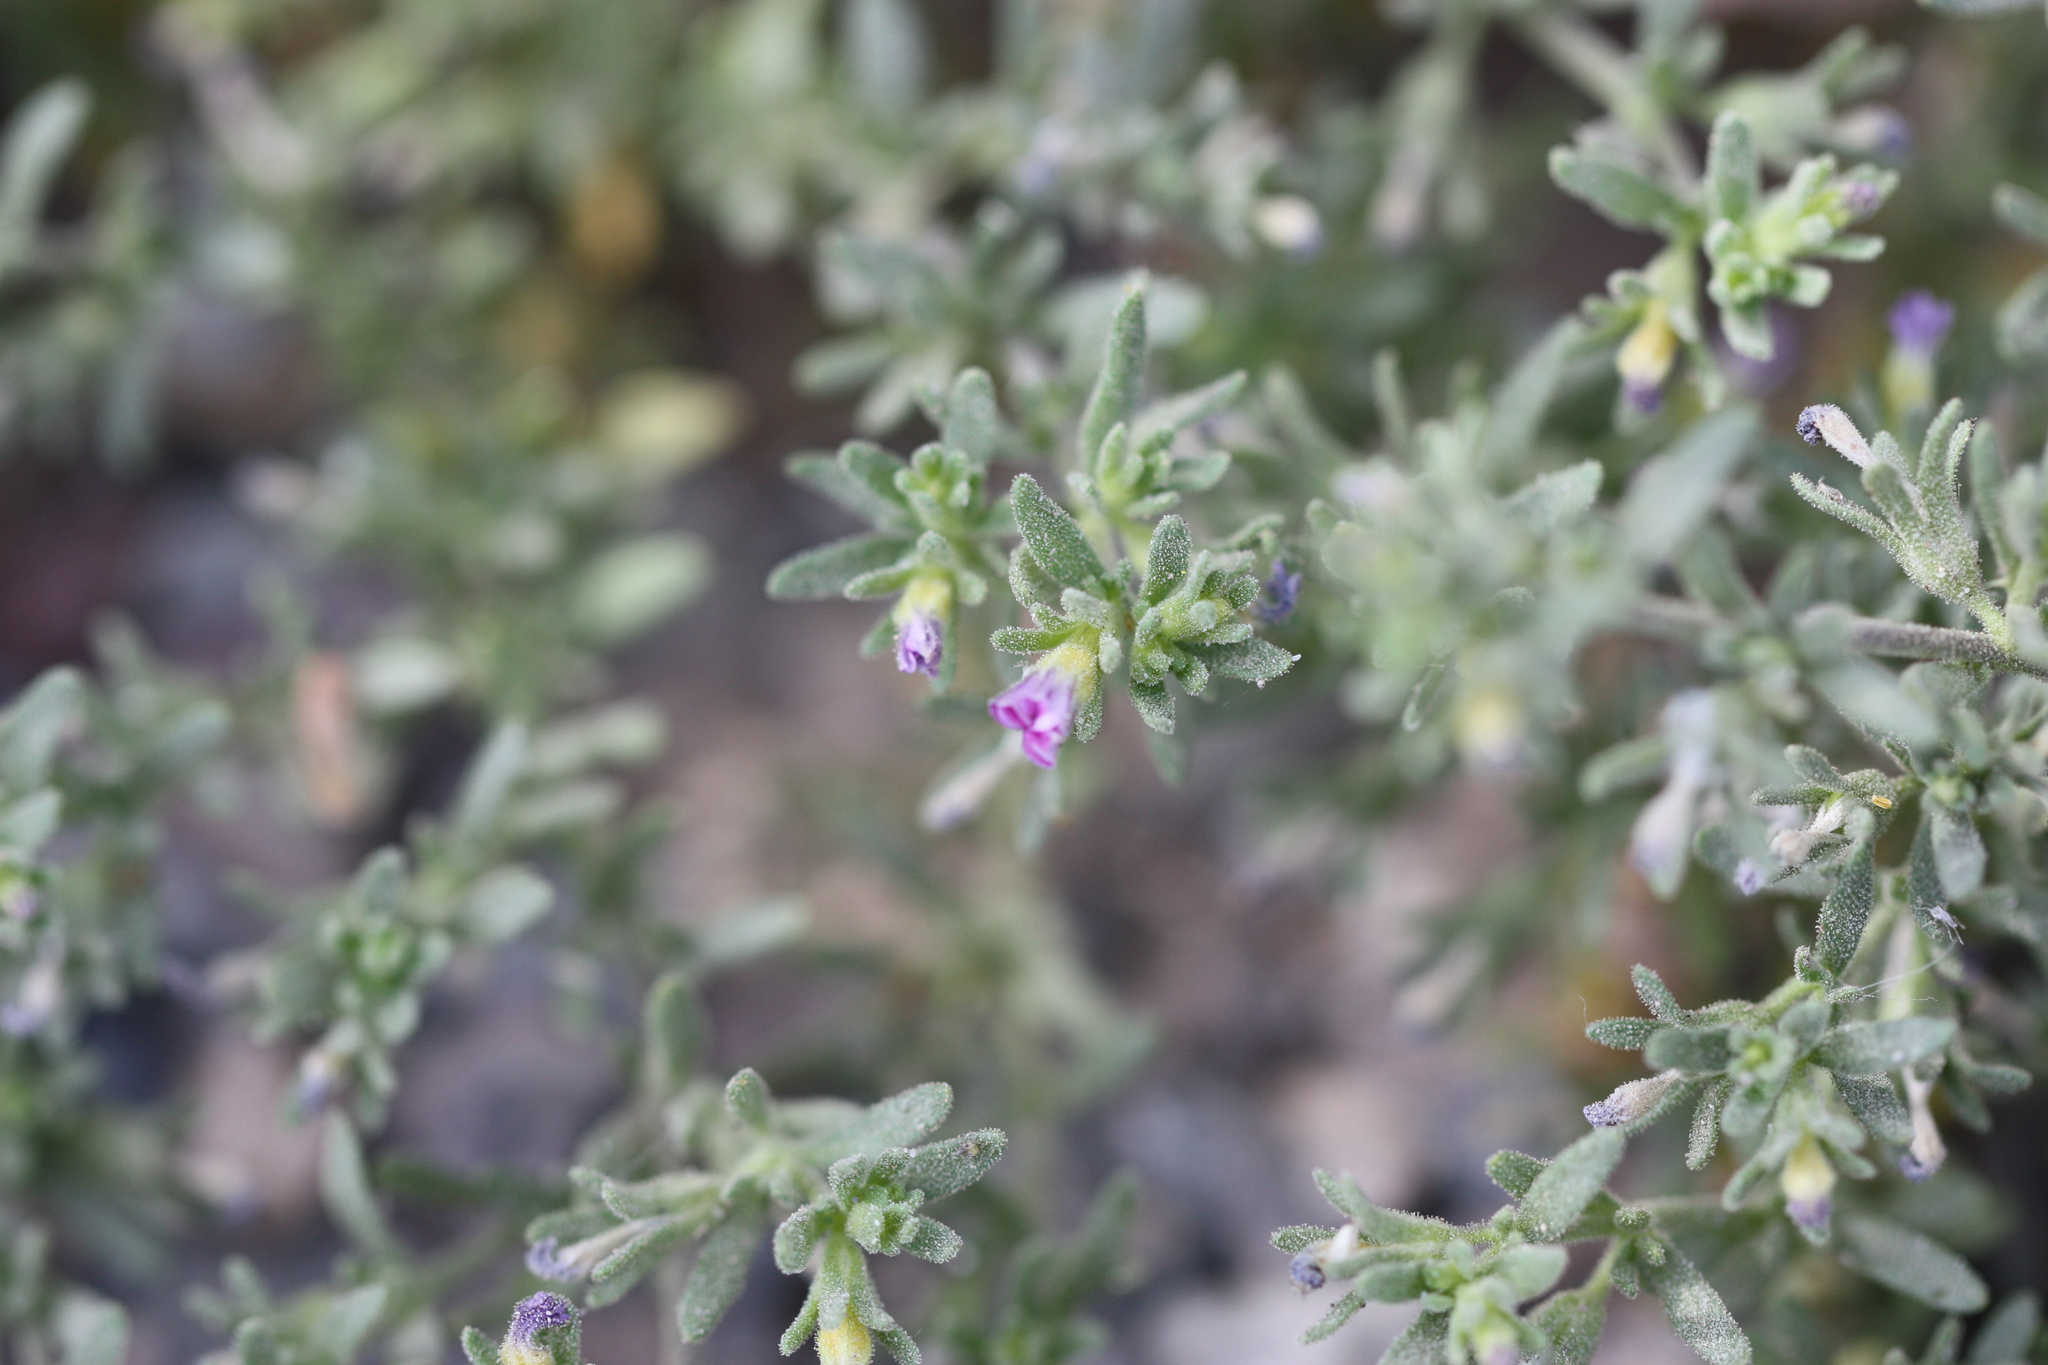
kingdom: Plantae
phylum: Tracheophyta
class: Magnoliopsida
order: Solanales
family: Solanaceae
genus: Calibrachoa
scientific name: Calibrachoa parviflora
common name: Seaside petunia
